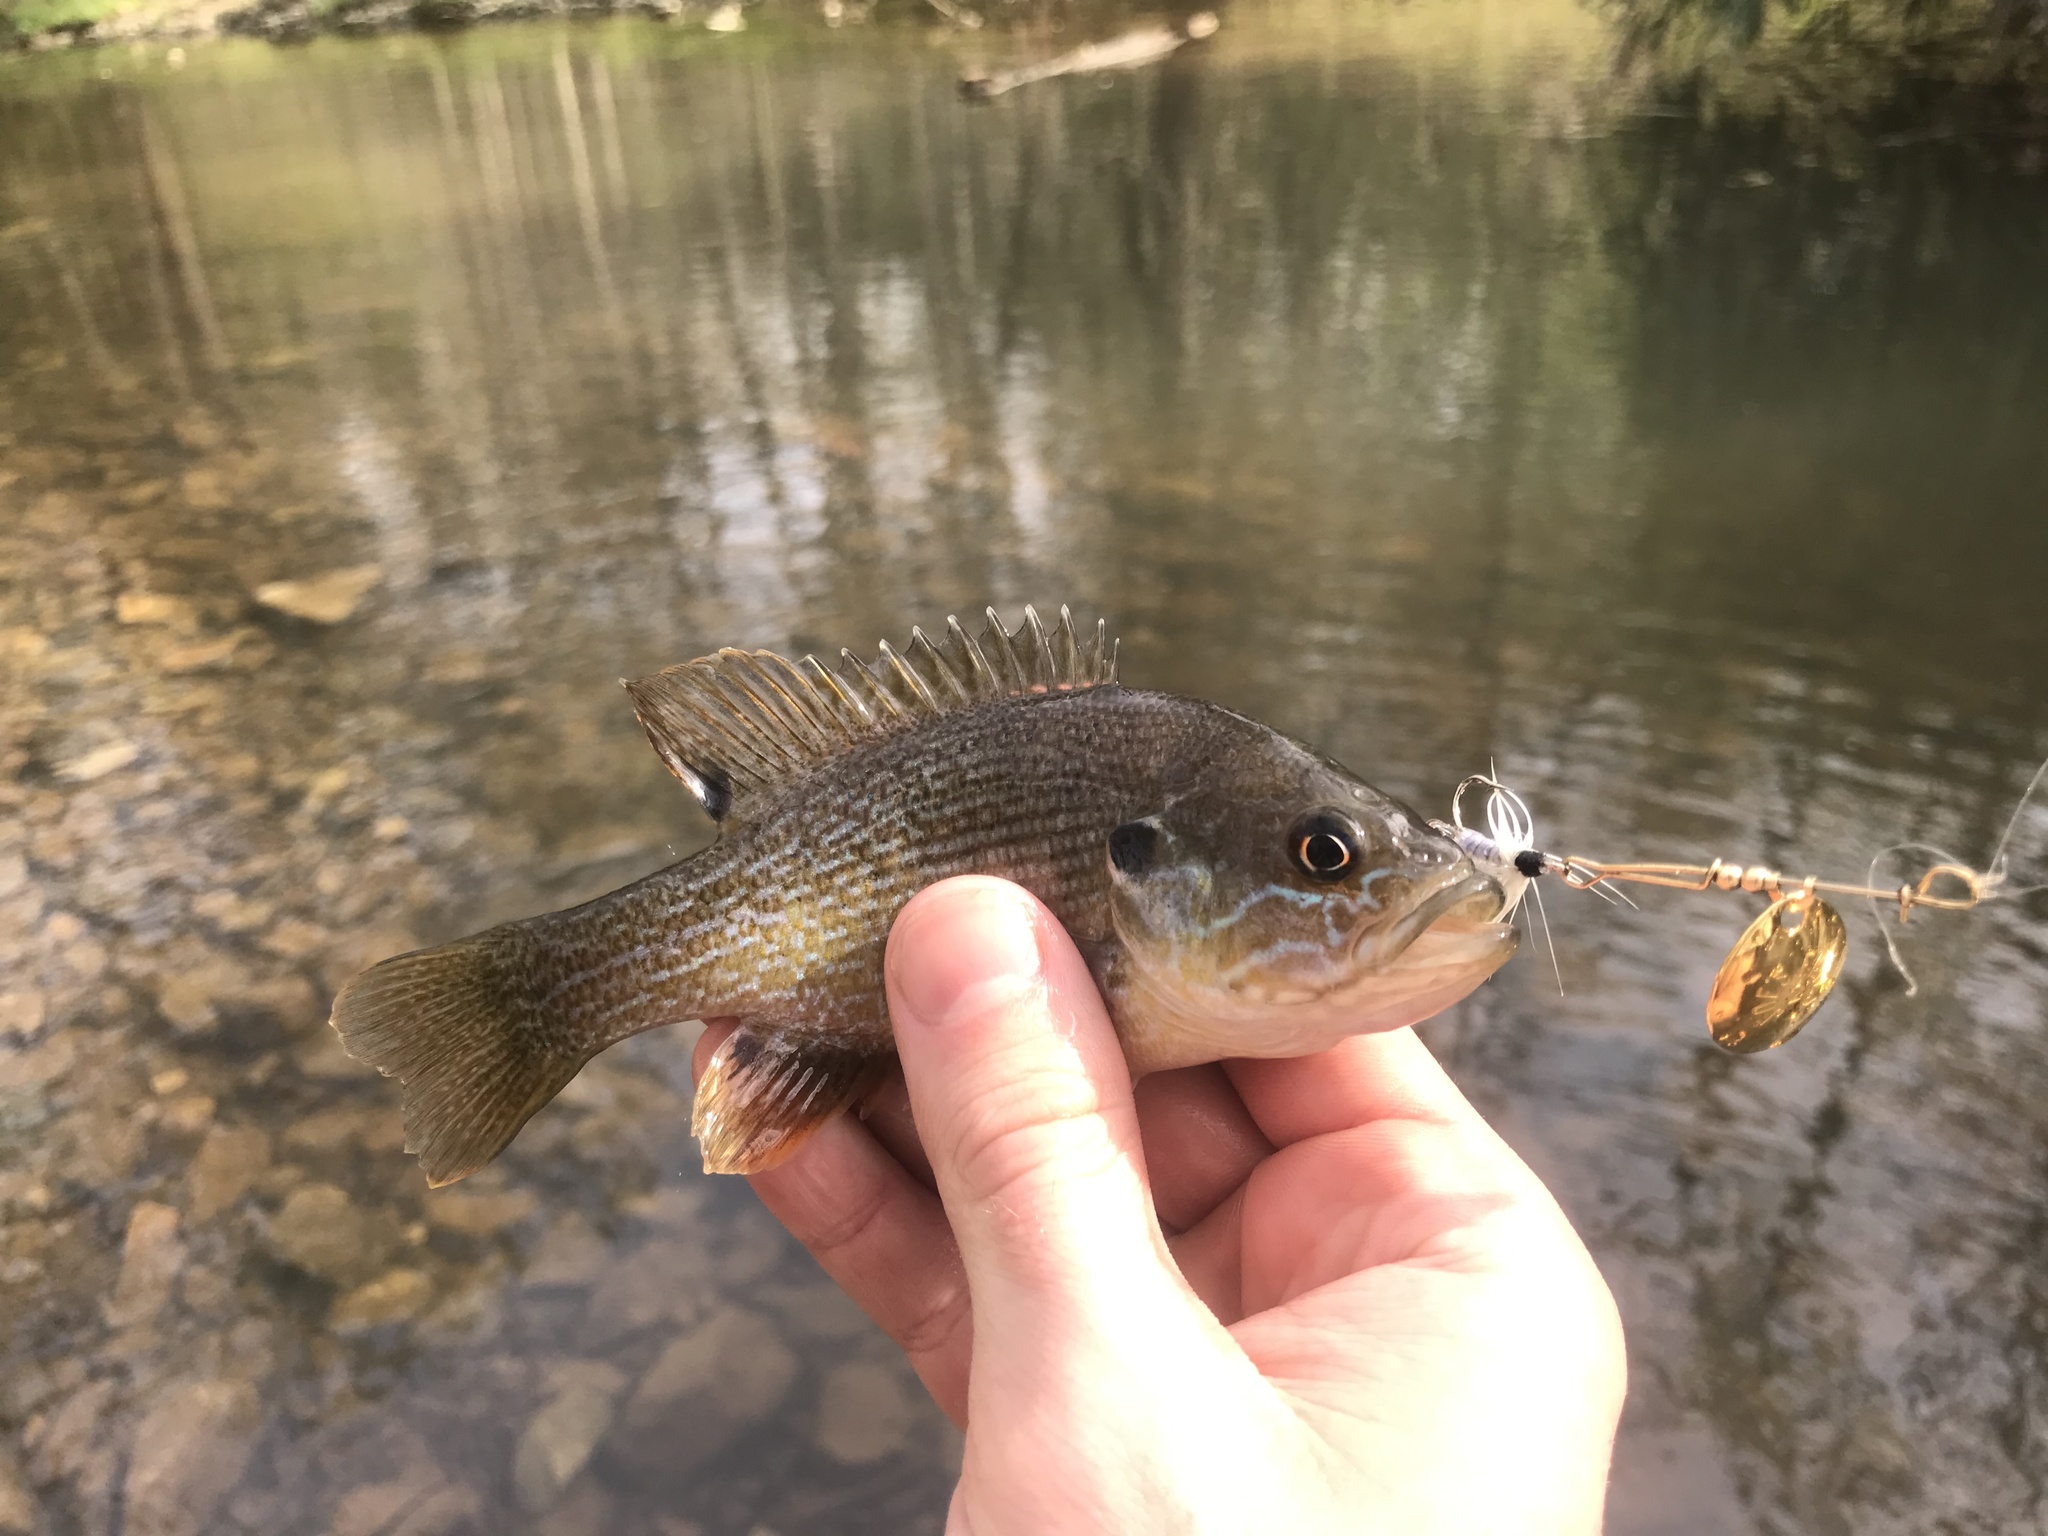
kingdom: Animalia
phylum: Chordata
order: Perciformes
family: Centrarchidae
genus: Lepomis
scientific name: Lepomis cyanellus
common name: Green sunfish
